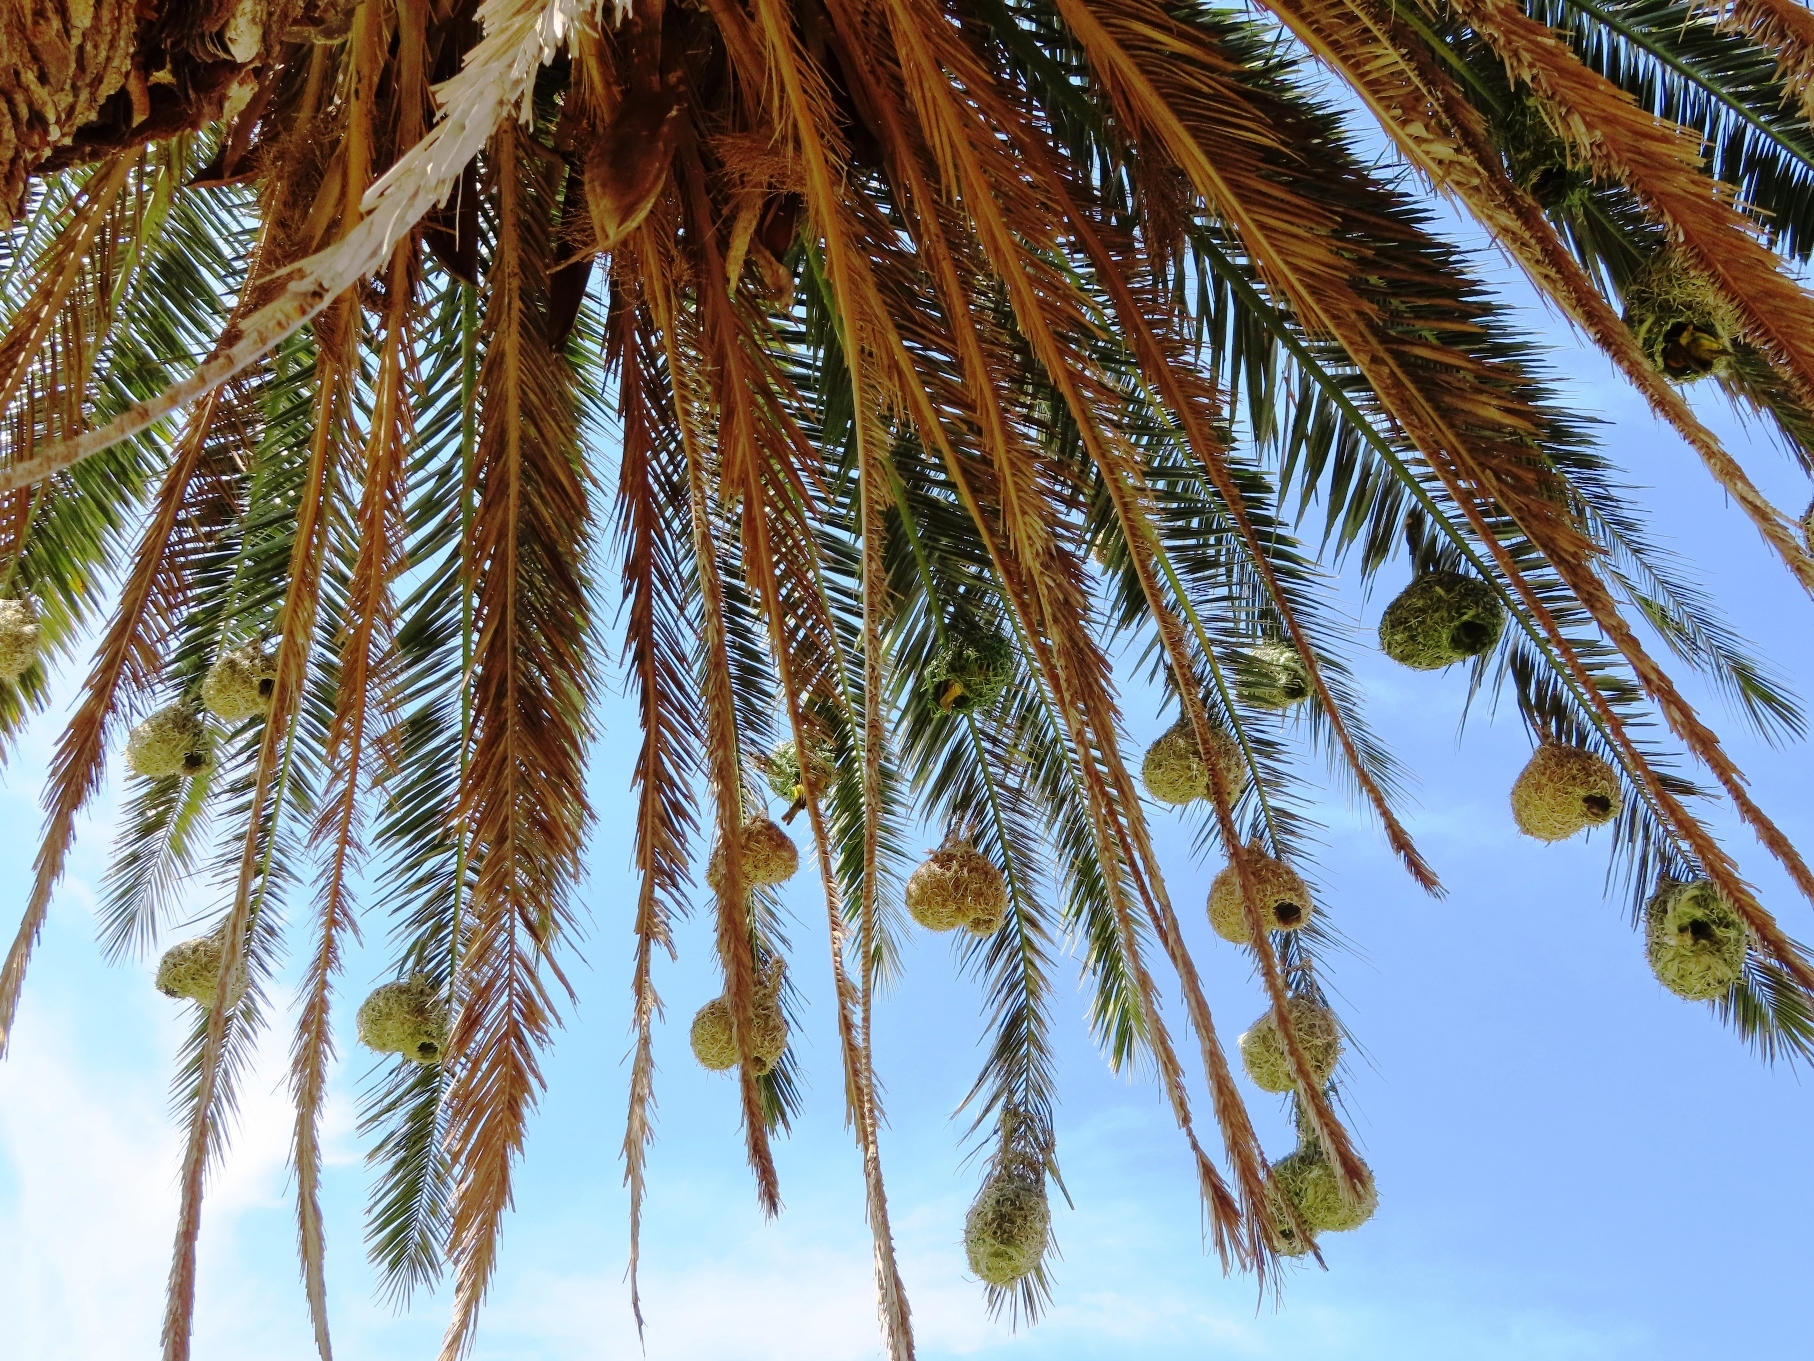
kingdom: Animalia
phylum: Chordata
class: Aves
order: Passeriformes
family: Ploceidae
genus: Ploceus
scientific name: Ploceus capensis
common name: Cape weaver
